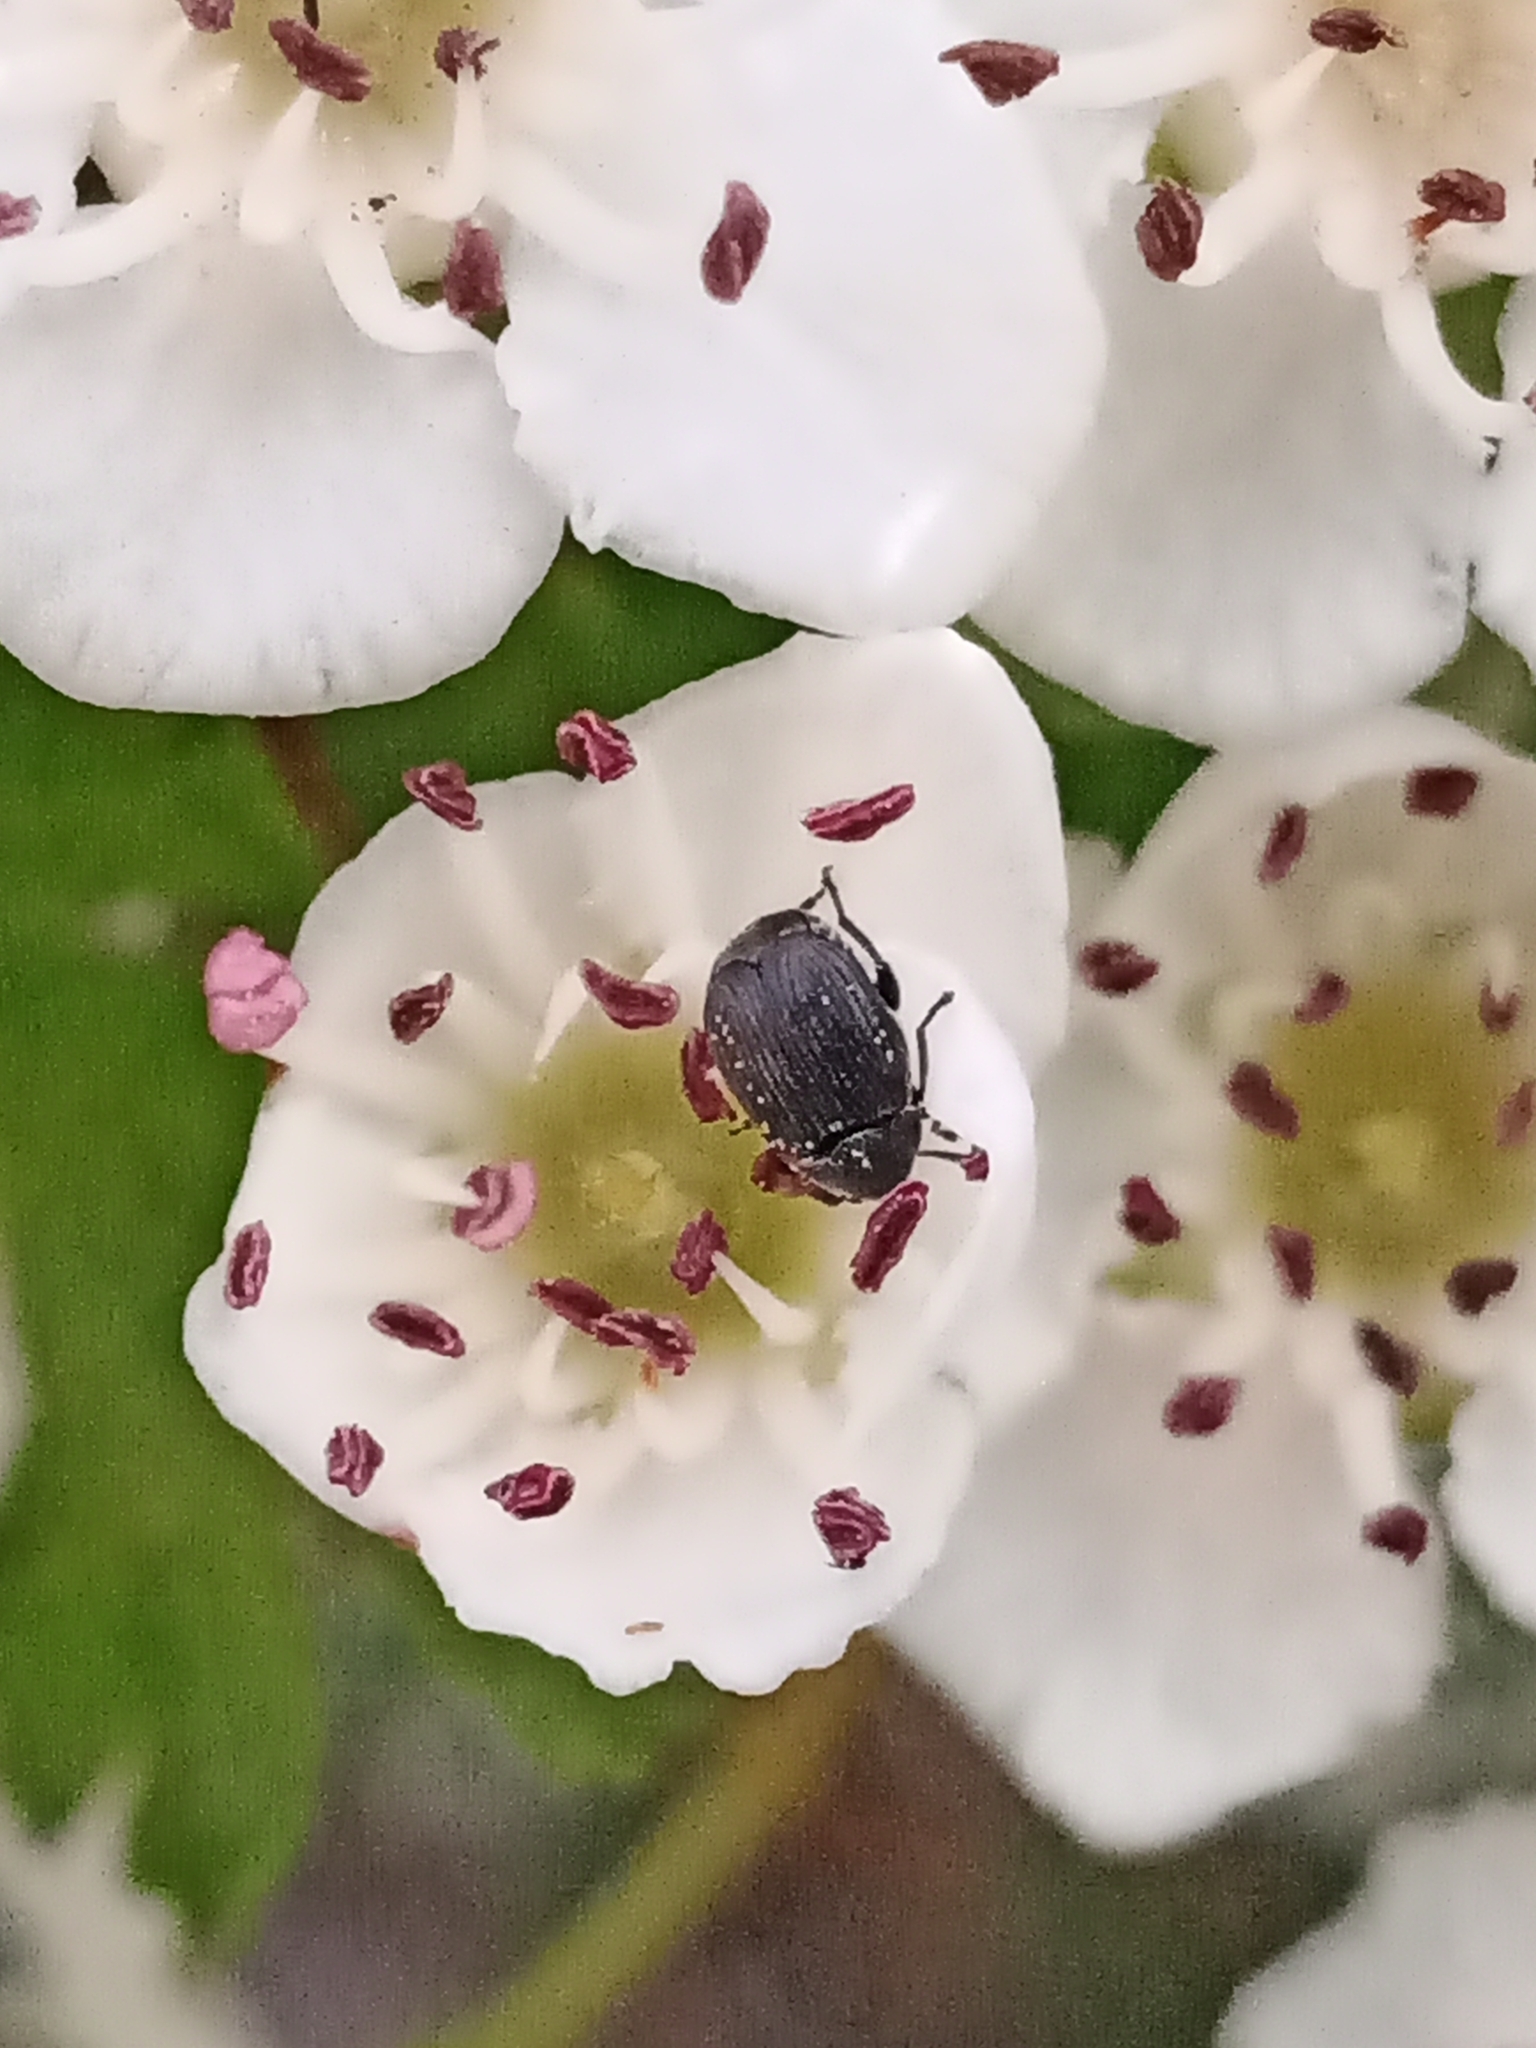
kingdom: Animalia
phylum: Arthropoda
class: Insecta
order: Coleoptera
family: Chrysomelidae
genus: Bruchidius
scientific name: Bruchidius villosus
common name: Scotch broom bruchid
